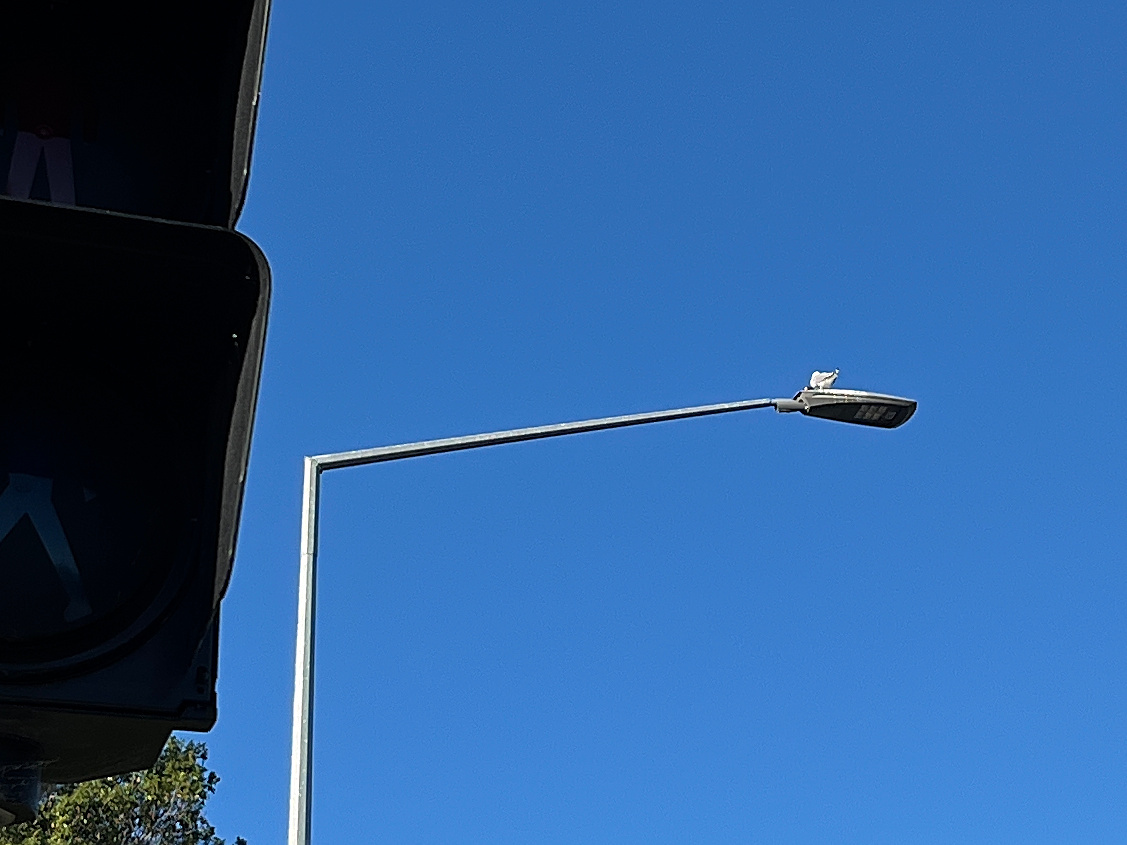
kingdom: Animalia
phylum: Chordata
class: Aves
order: Charadriiformes
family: Laridae
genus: Chroicocephalus
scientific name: Chroicocephalus novaehollandiae
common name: Silver gull
